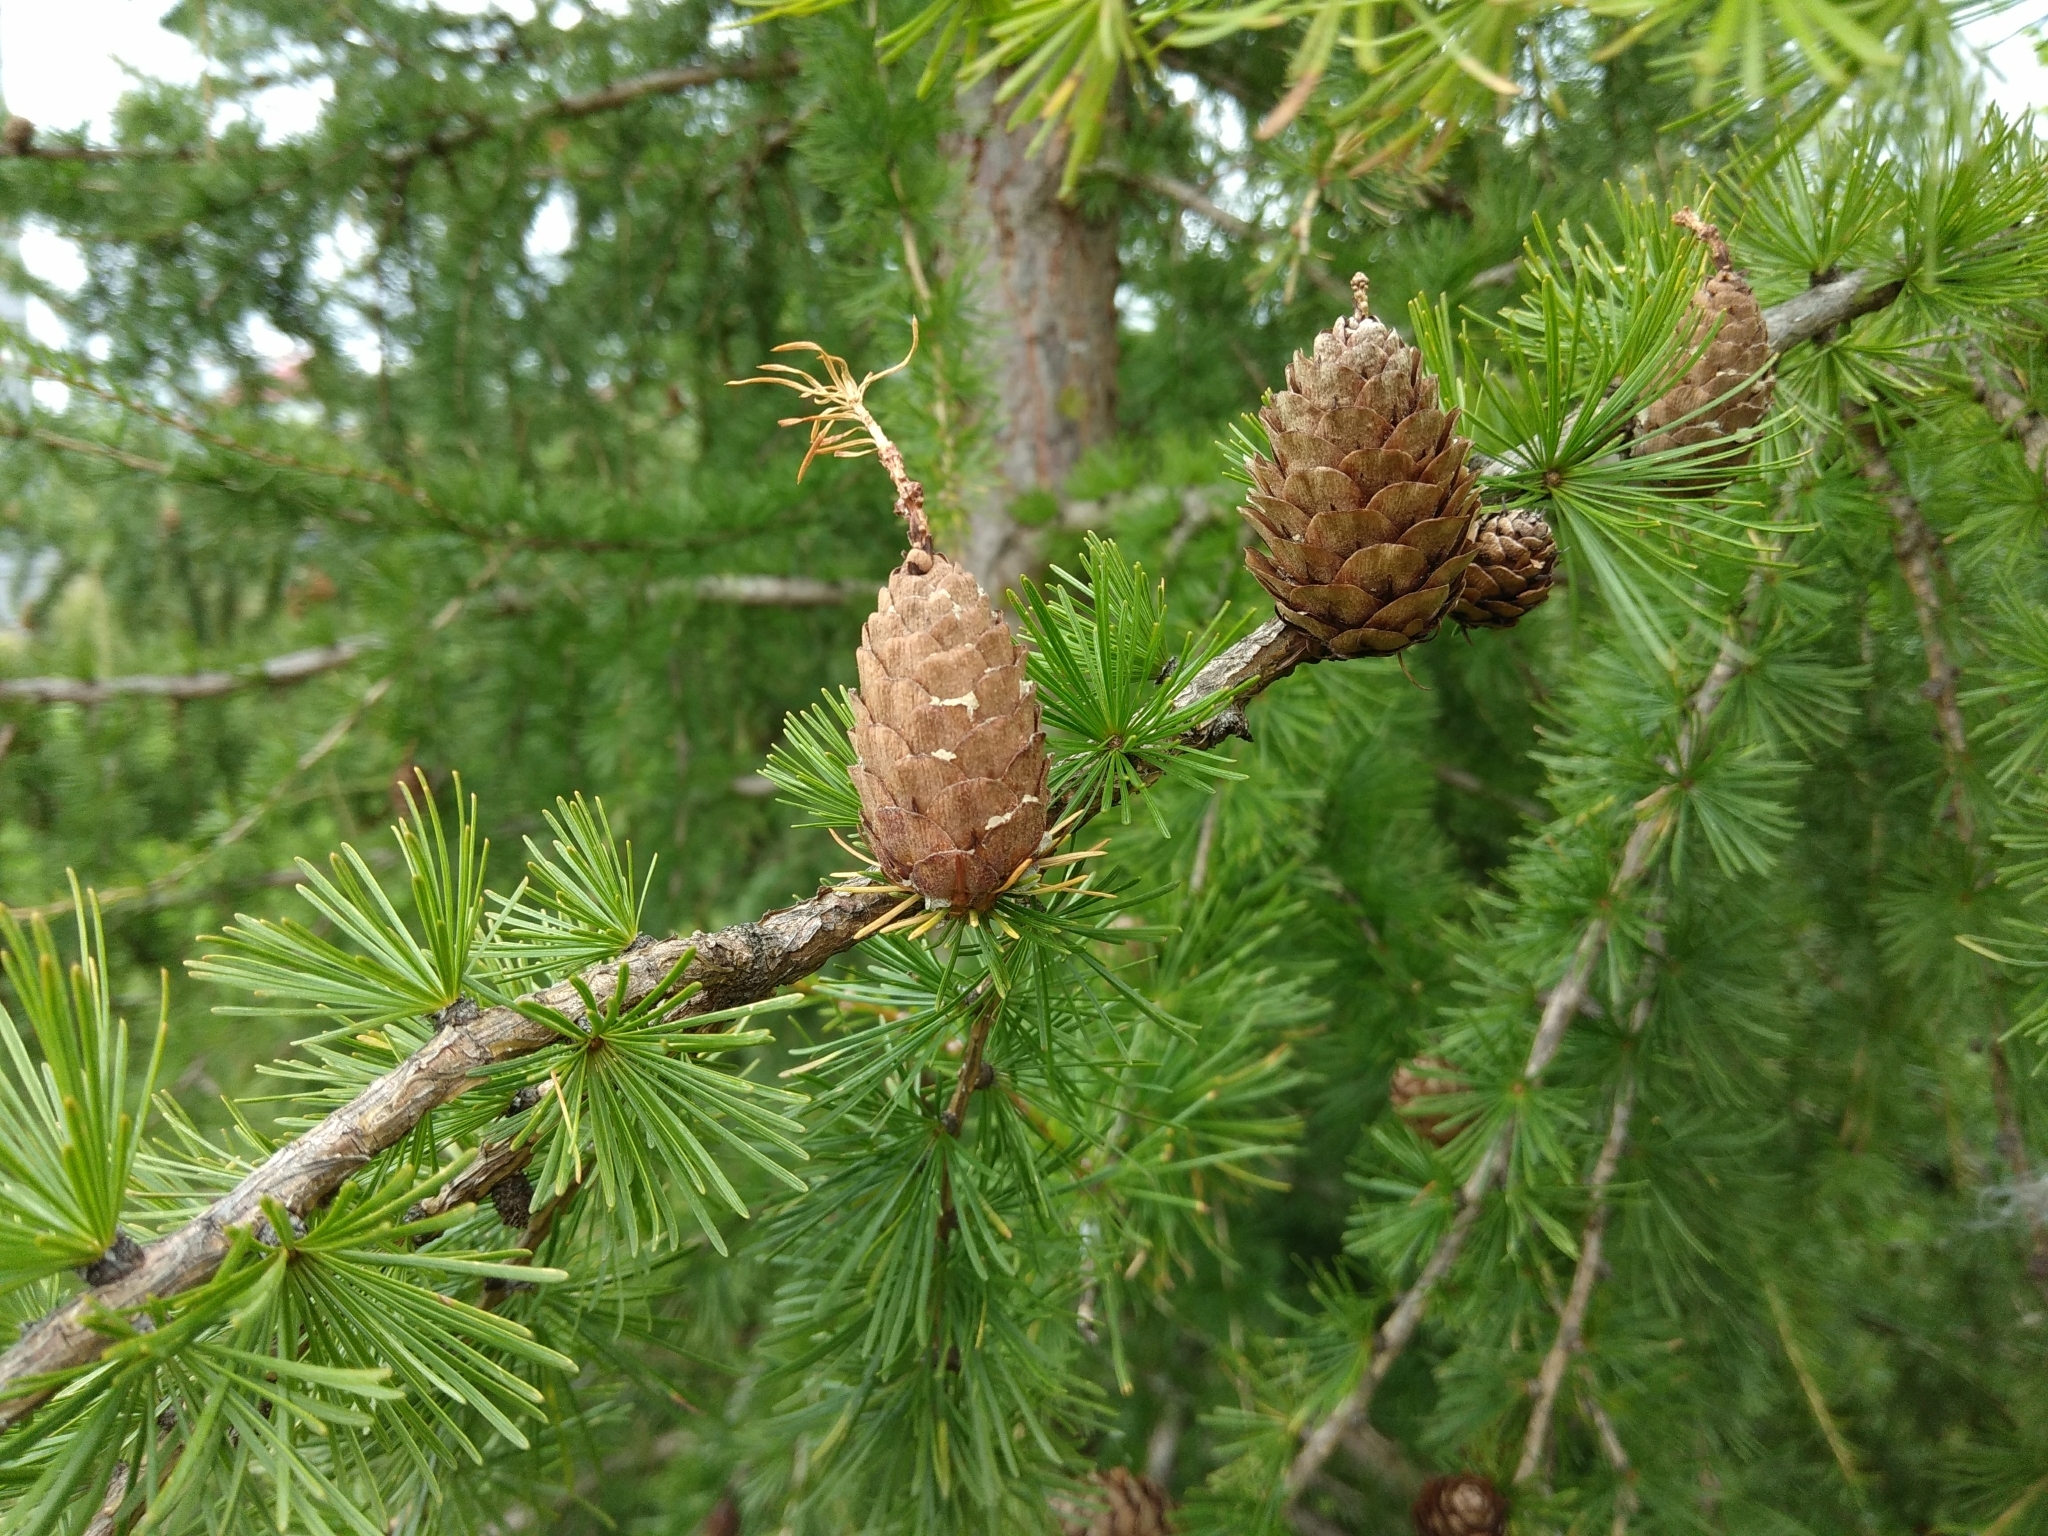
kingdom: Plantae
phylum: Tracheophyta
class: Pinopsida
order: Pinales
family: Pinaceae
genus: Larix
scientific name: Larix decidua
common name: European larch
